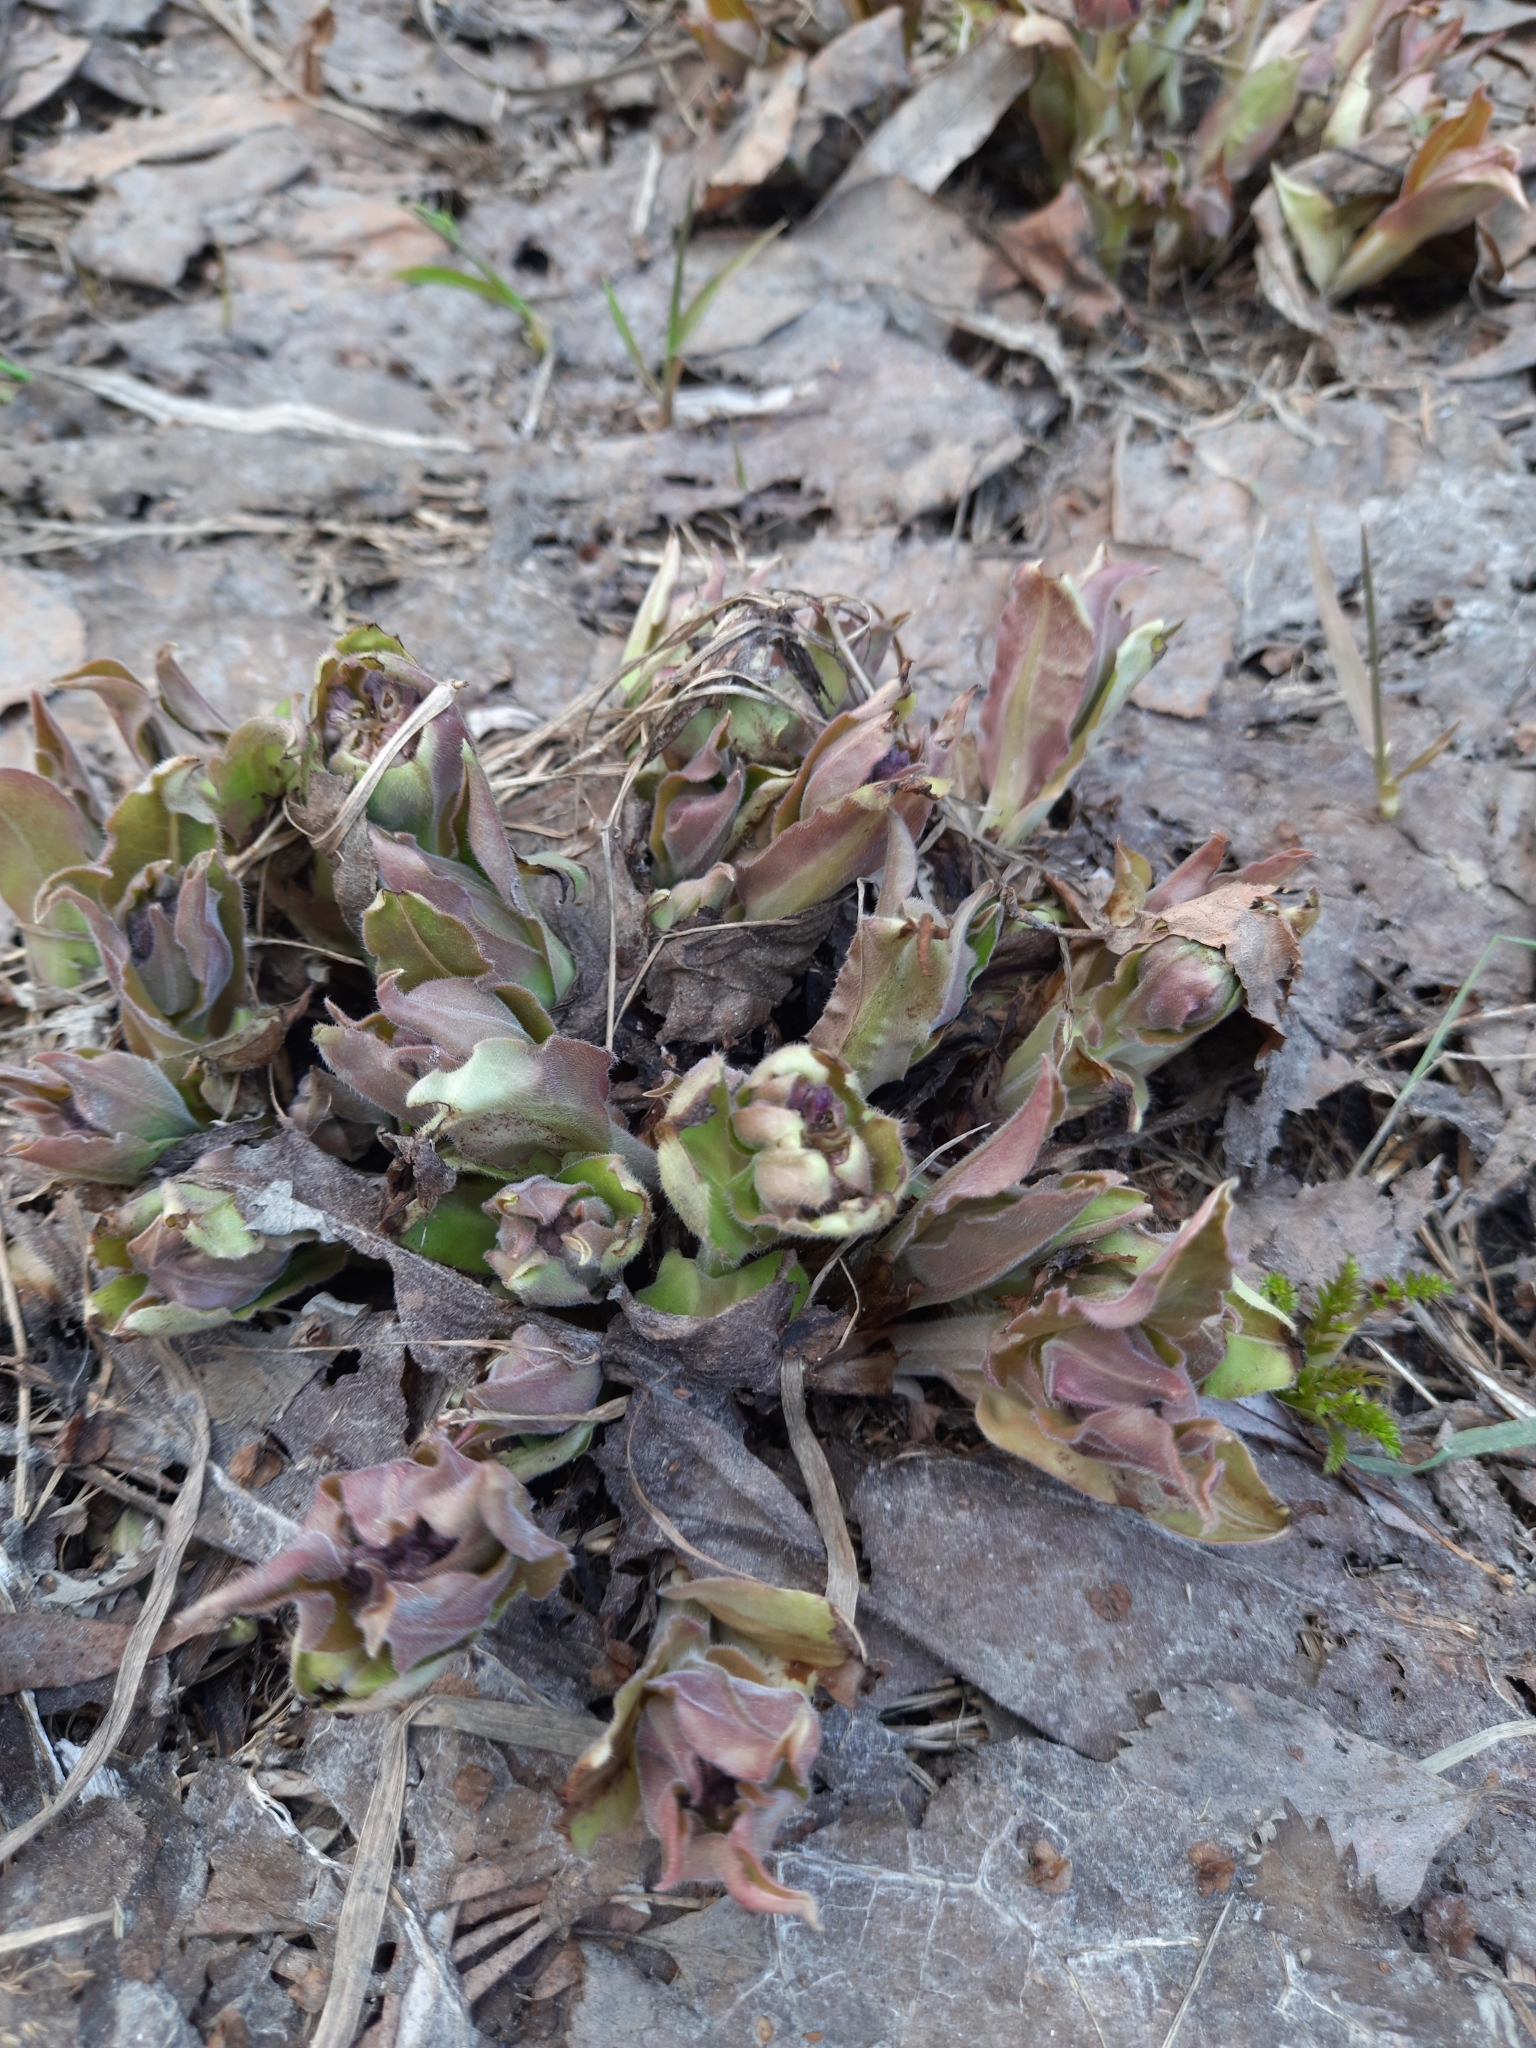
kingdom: Plantae
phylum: Tracheophyta
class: Magnoliopsida
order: Boraginales
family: Boraginaceae
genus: Pulmonaria
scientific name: Pulmonaria mollis
